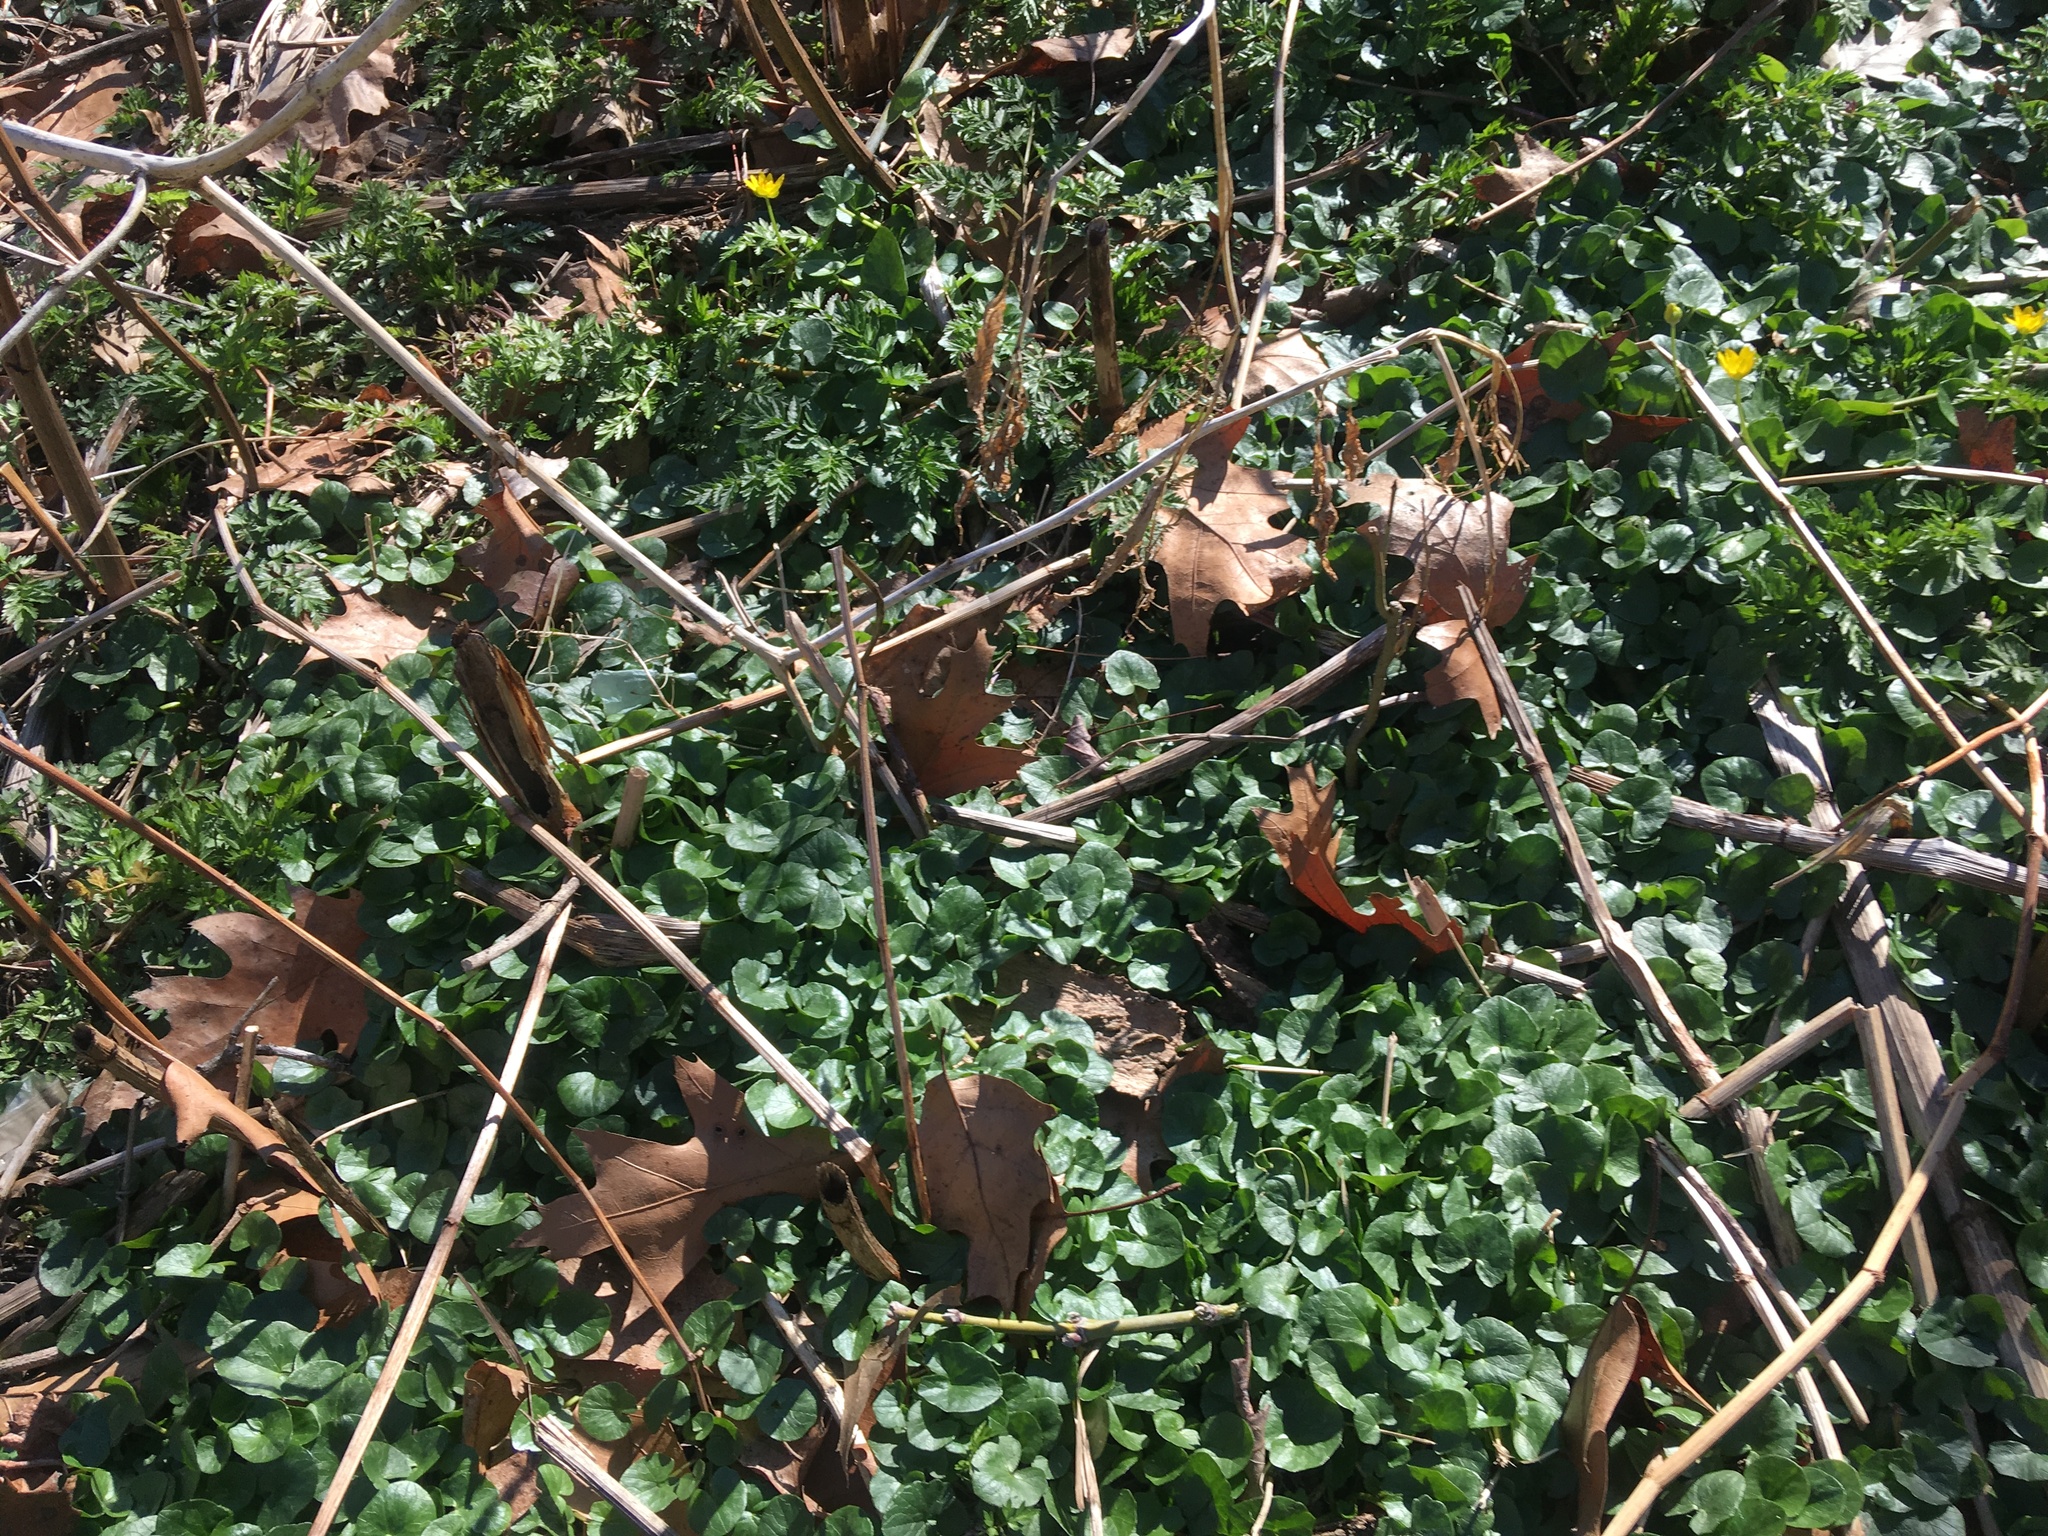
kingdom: Plantae
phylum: Tracheophyta
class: Magnoliopsida
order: Ranunculales
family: Ranunculaceae
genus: Ficaria
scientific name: Ficaria verna
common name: Lesser celandine
